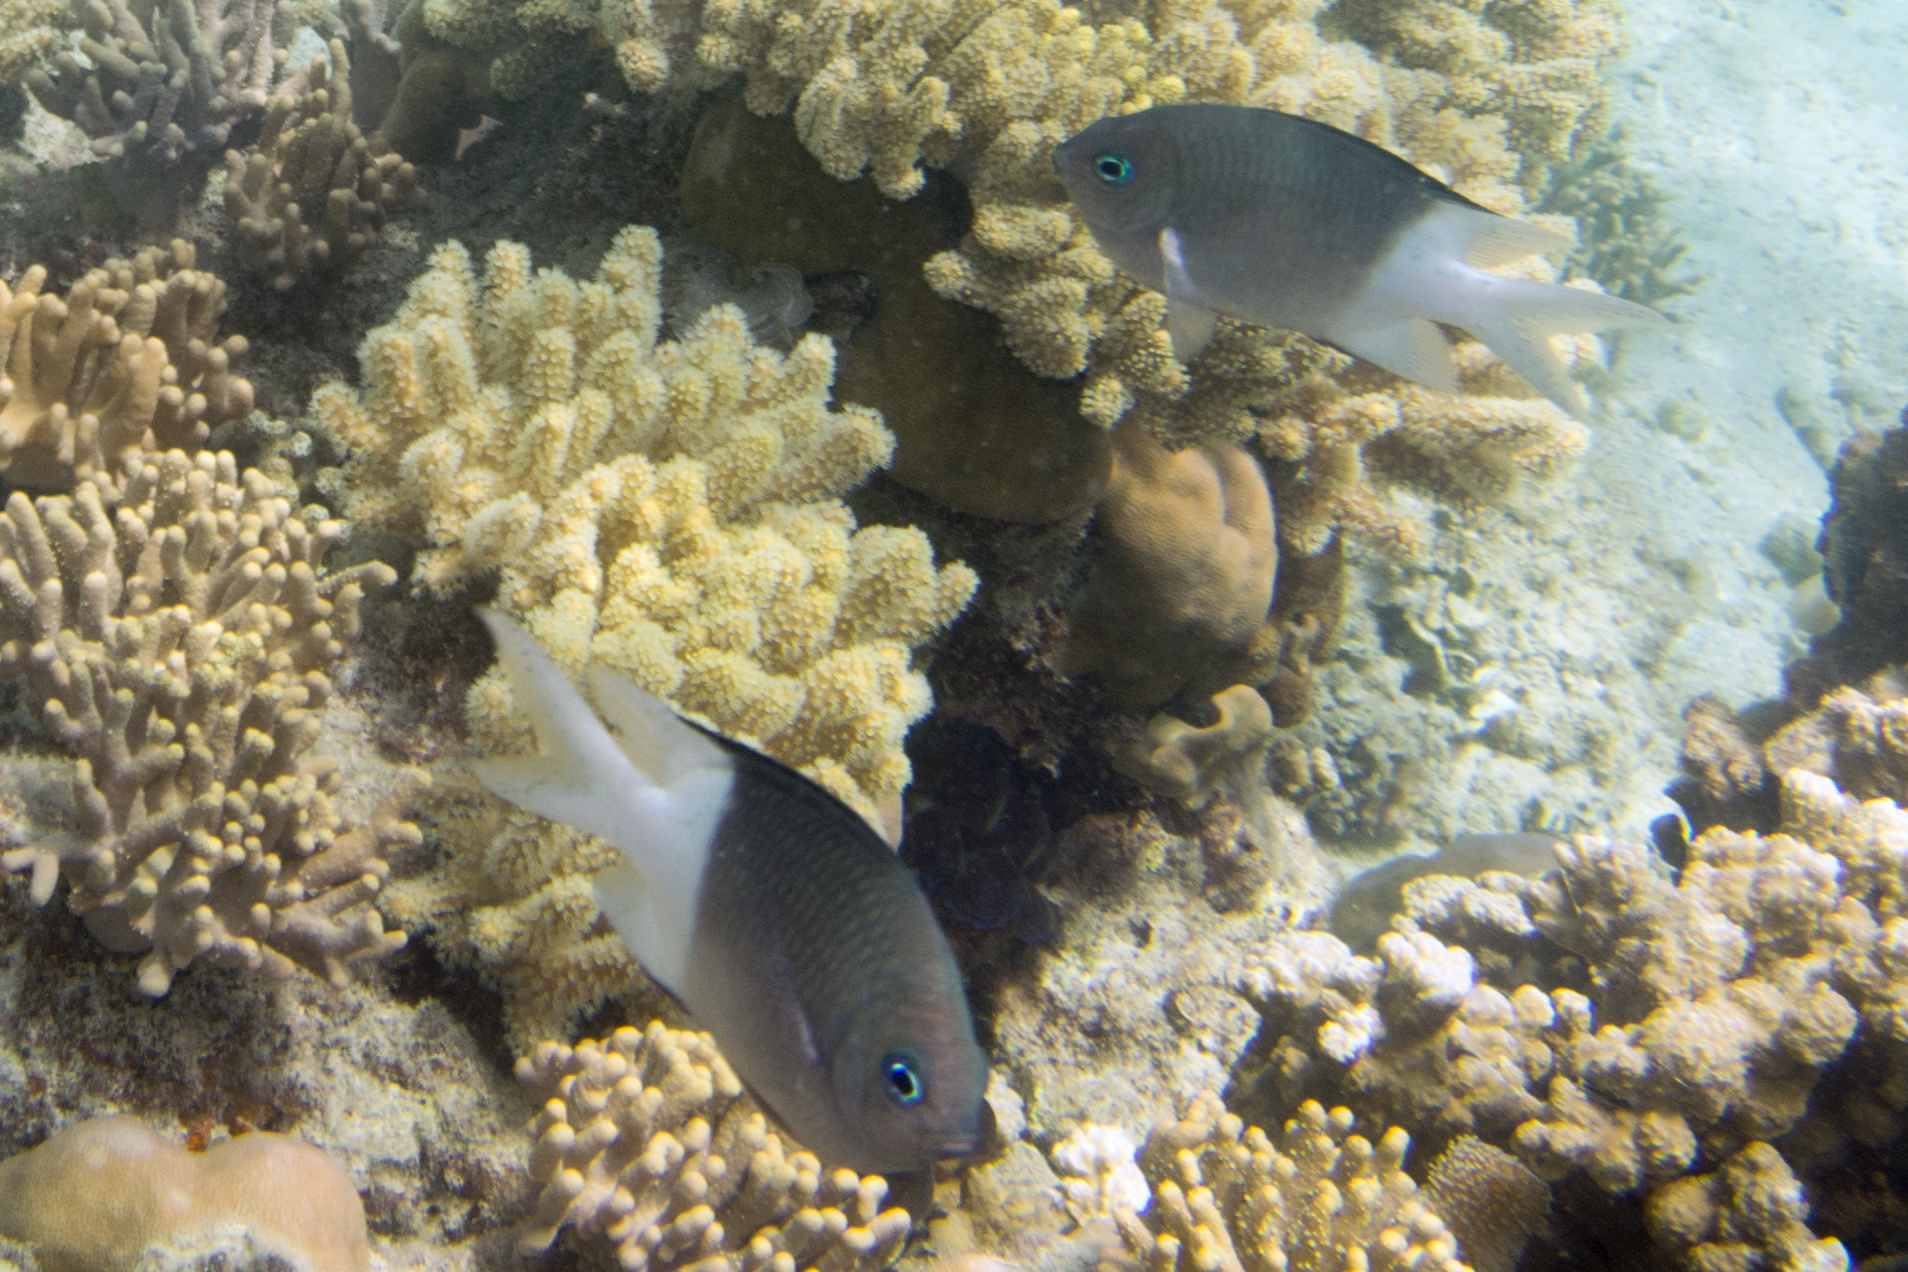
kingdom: Animalia
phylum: Chordata
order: Perciformes
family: Pomacentridae
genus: Acanthochromis
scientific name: Acanthochromis polyacanthus
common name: Spiny chromis
